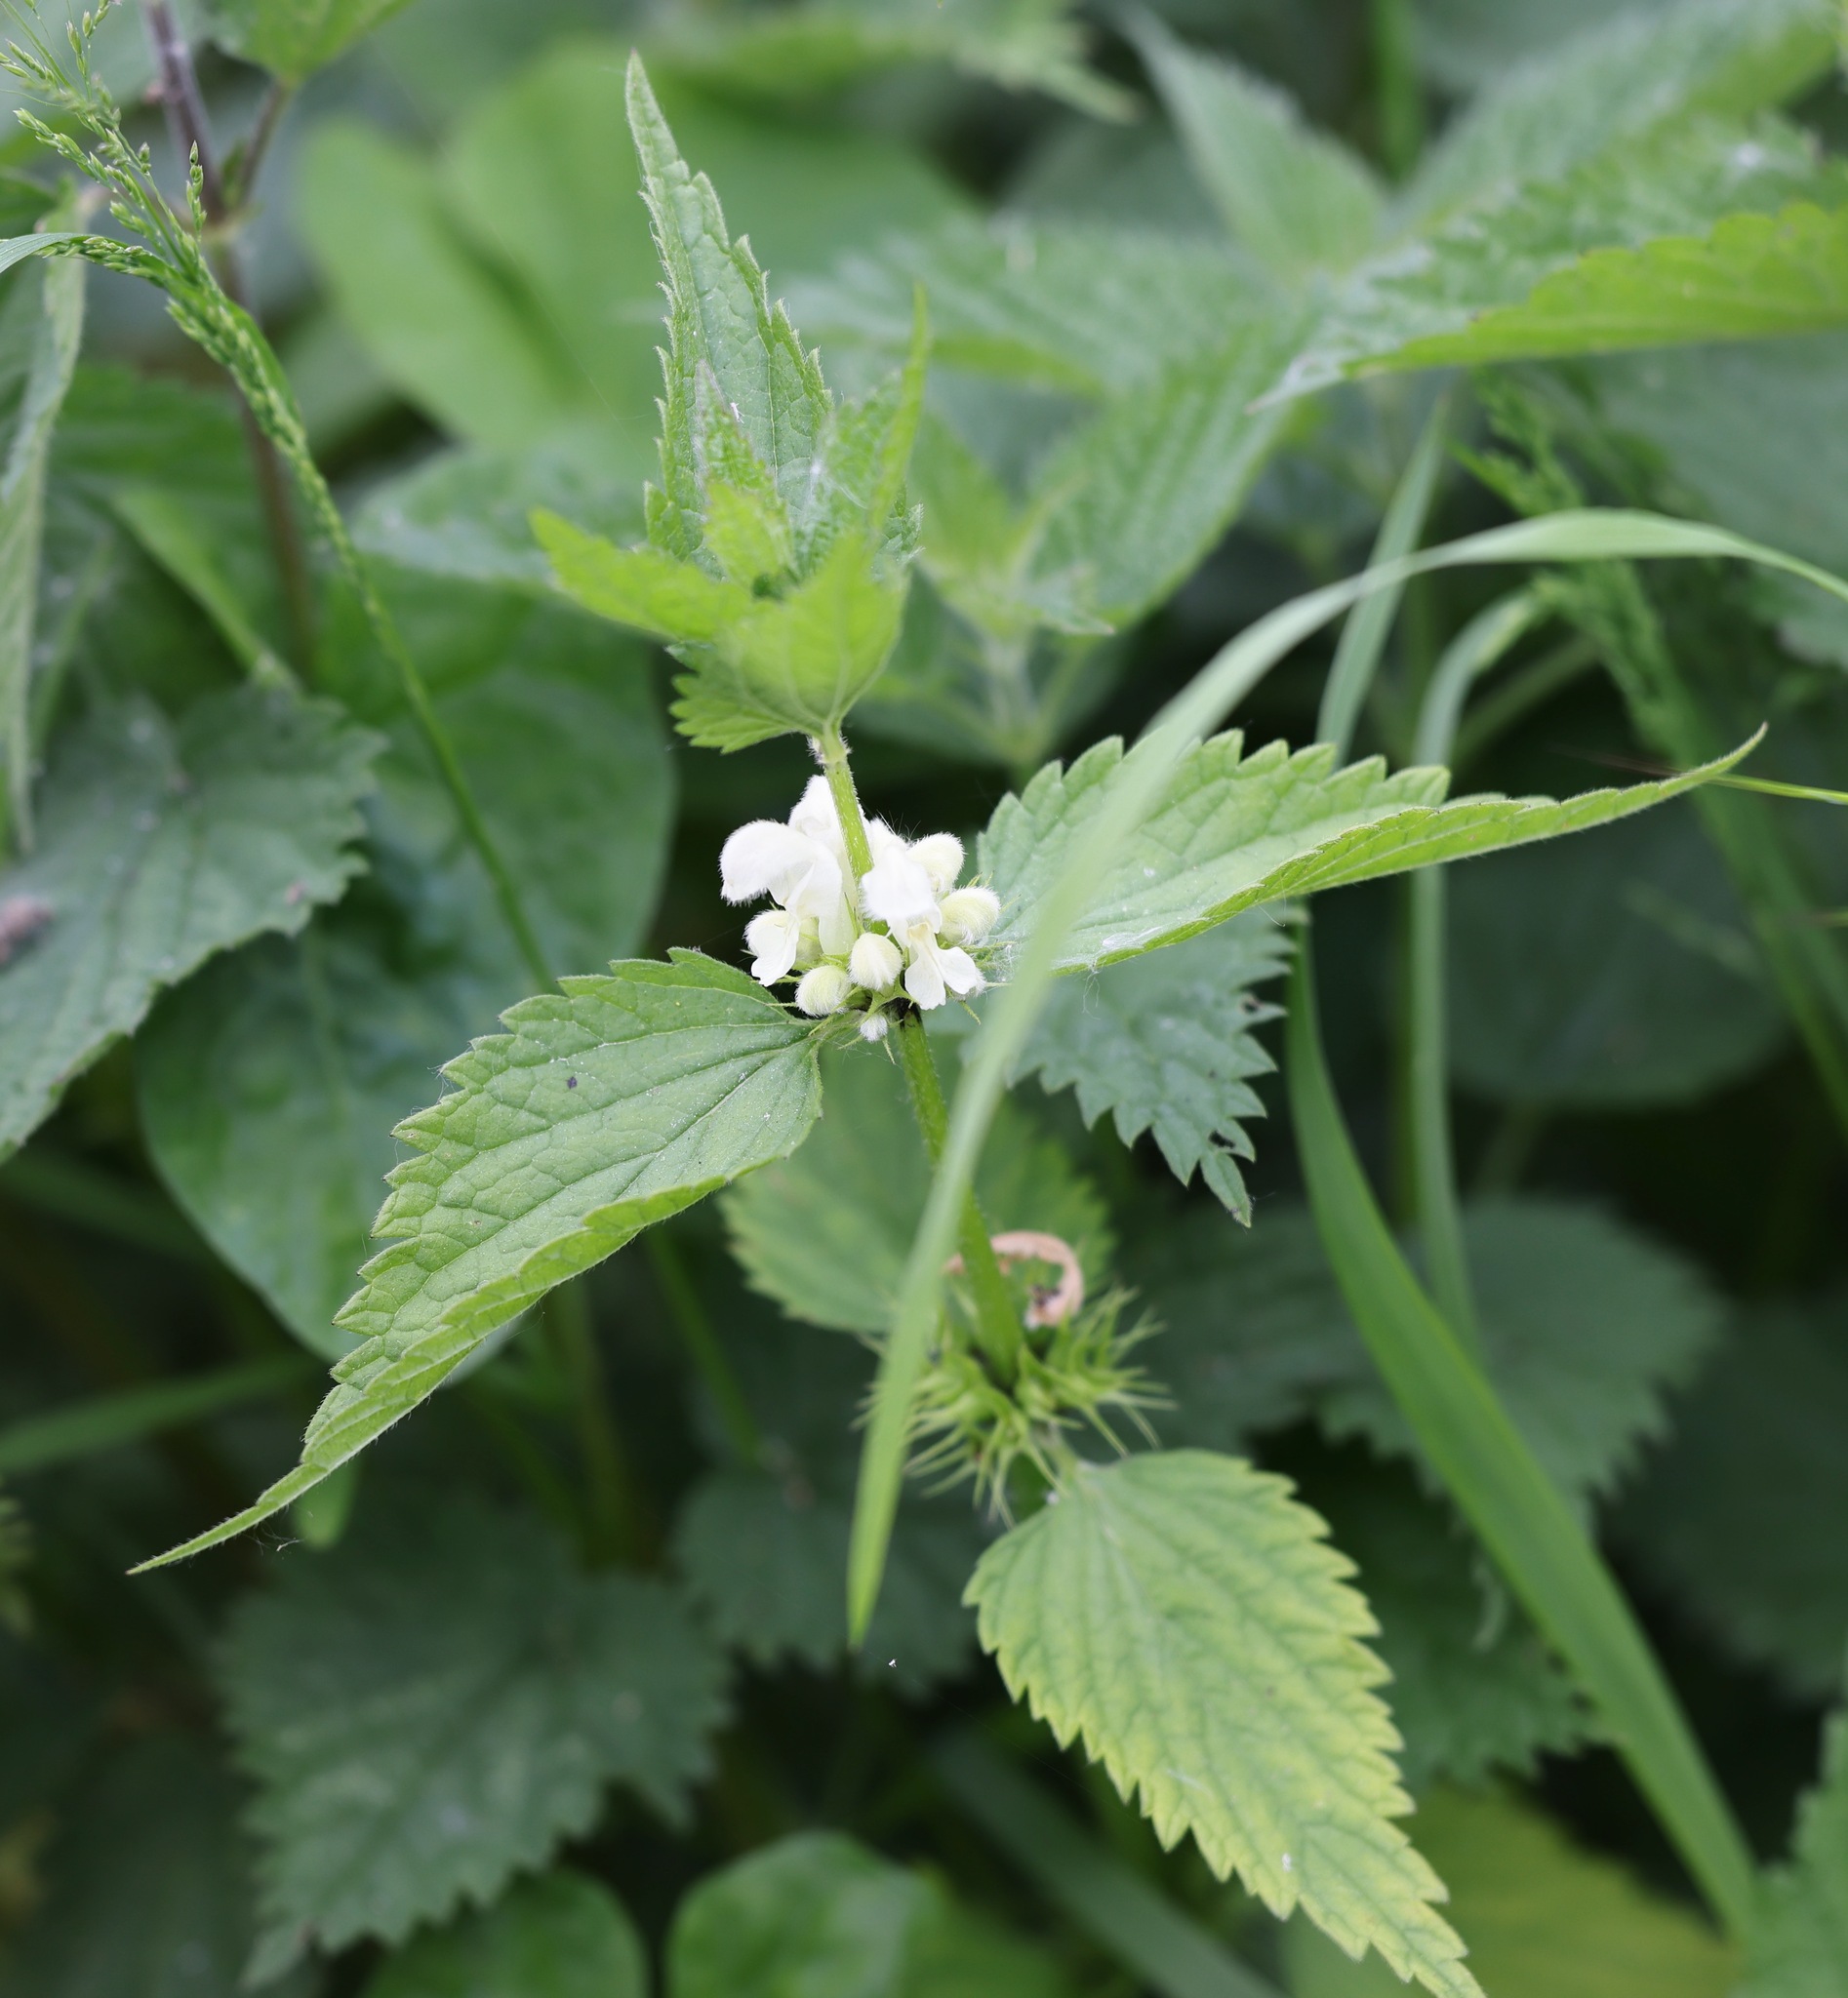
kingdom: Plantae
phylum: Tracheophyta
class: Magnoliopsida
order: Lamiales
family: Lamiaceae
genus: Lamium
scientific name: Lamium album
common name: White dead-nettle
